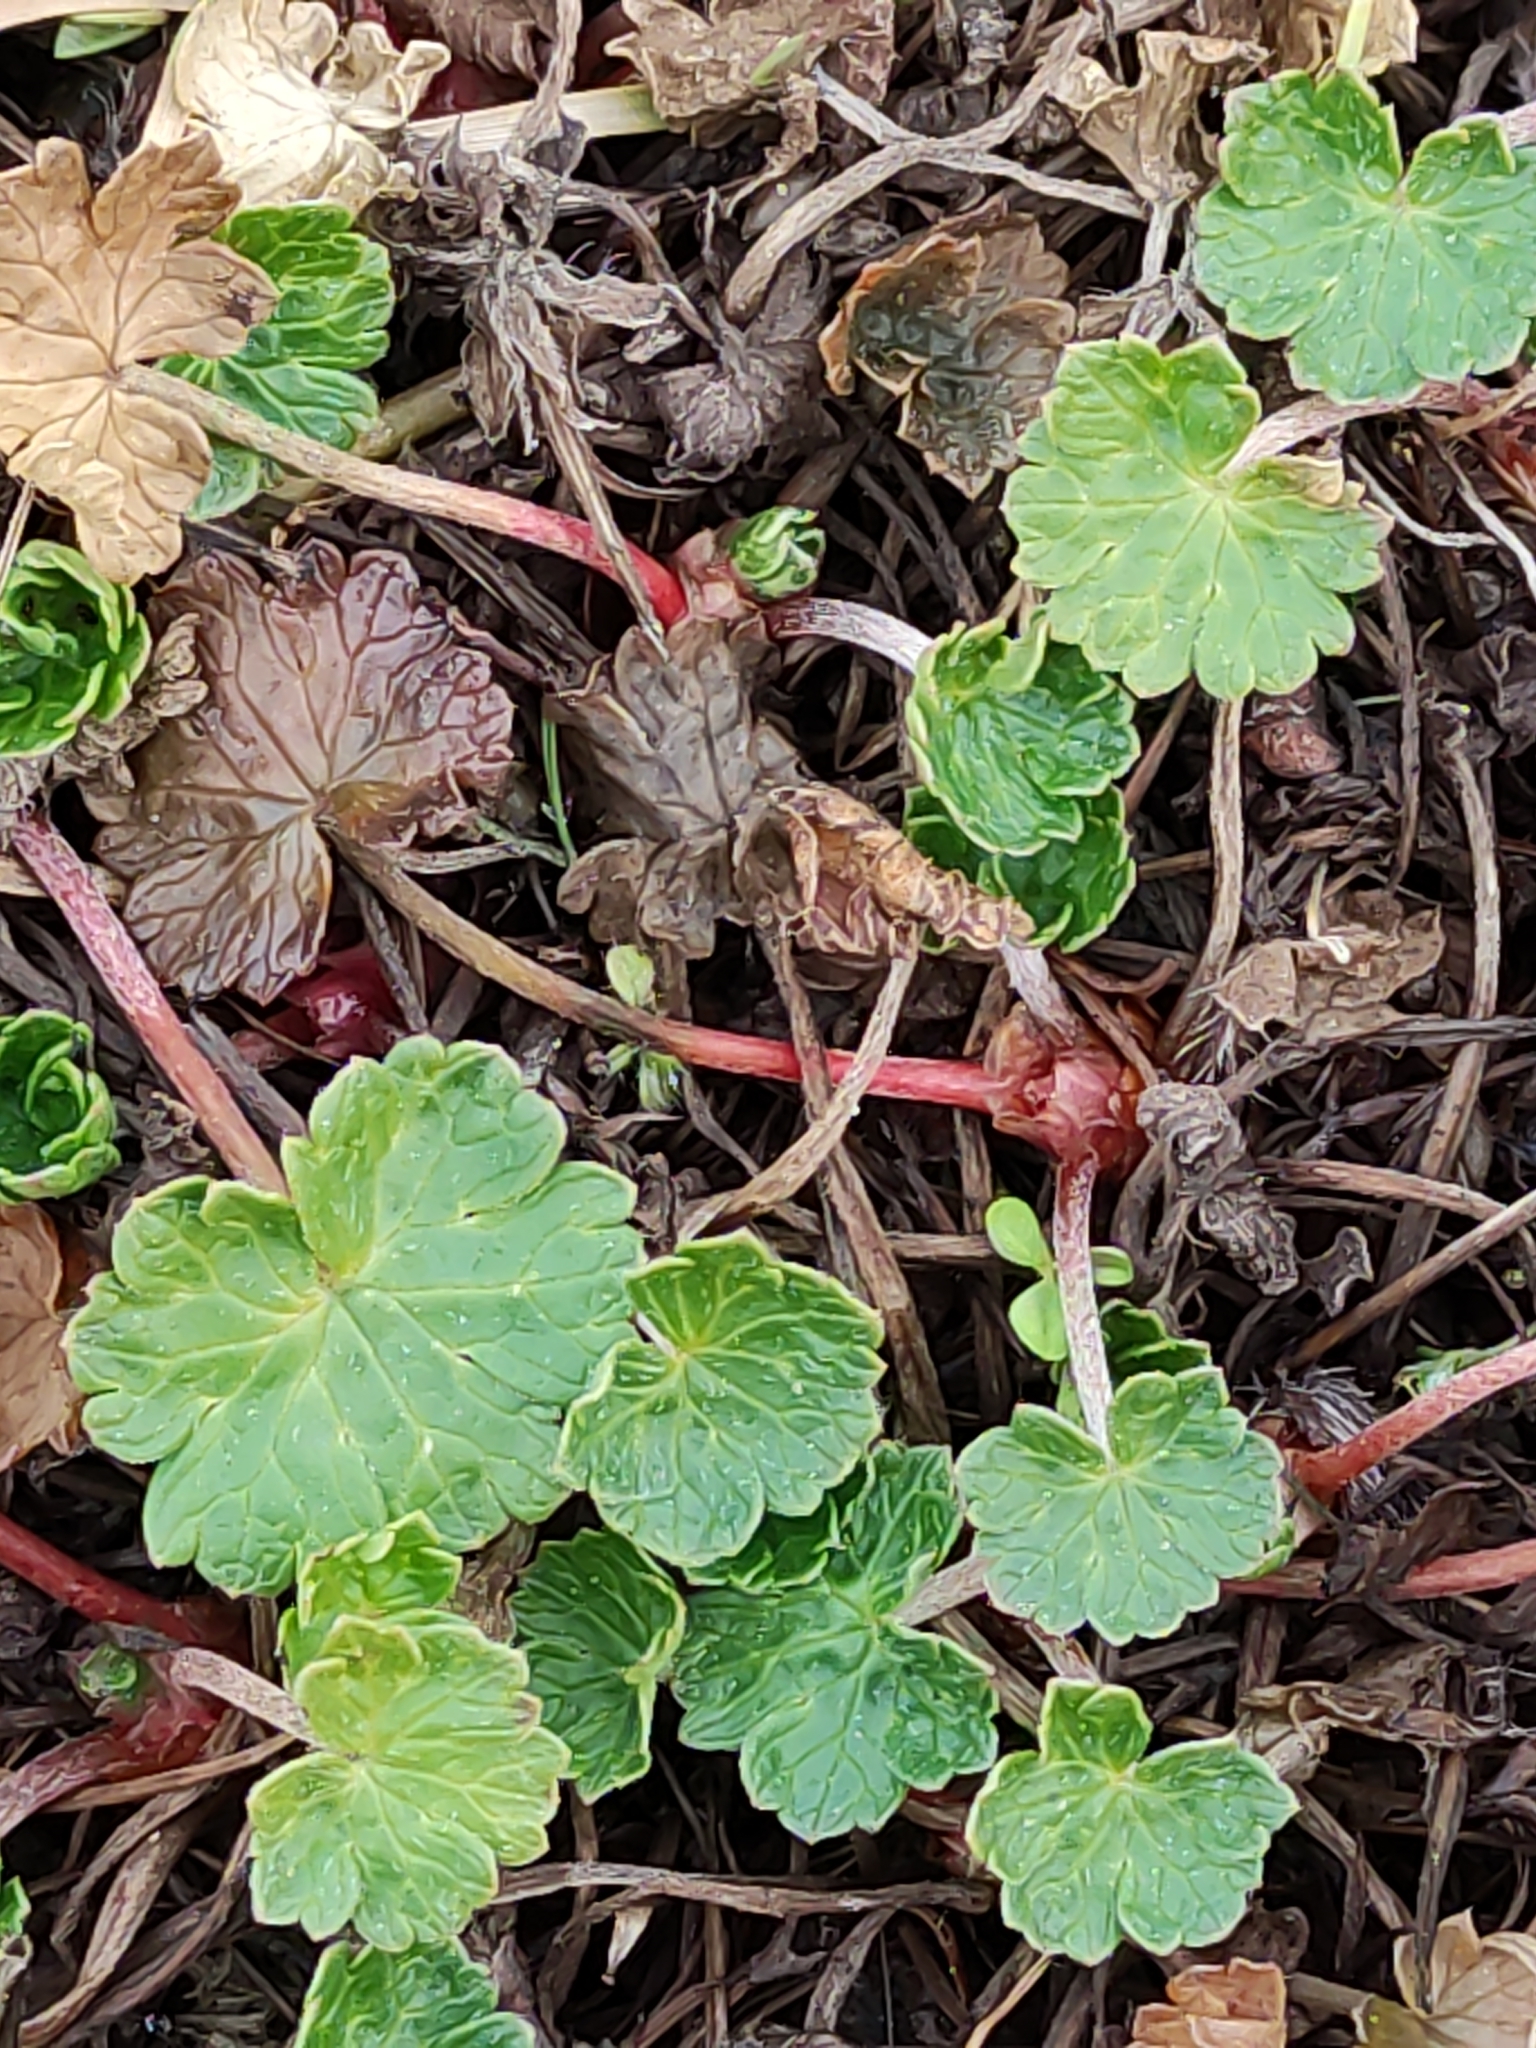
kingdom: Plantae
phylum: Tracheophyta
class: Magnoliopsida
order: Geraniales
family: Geraniaceae
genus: Geranium
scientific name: Geranium brevicaule
